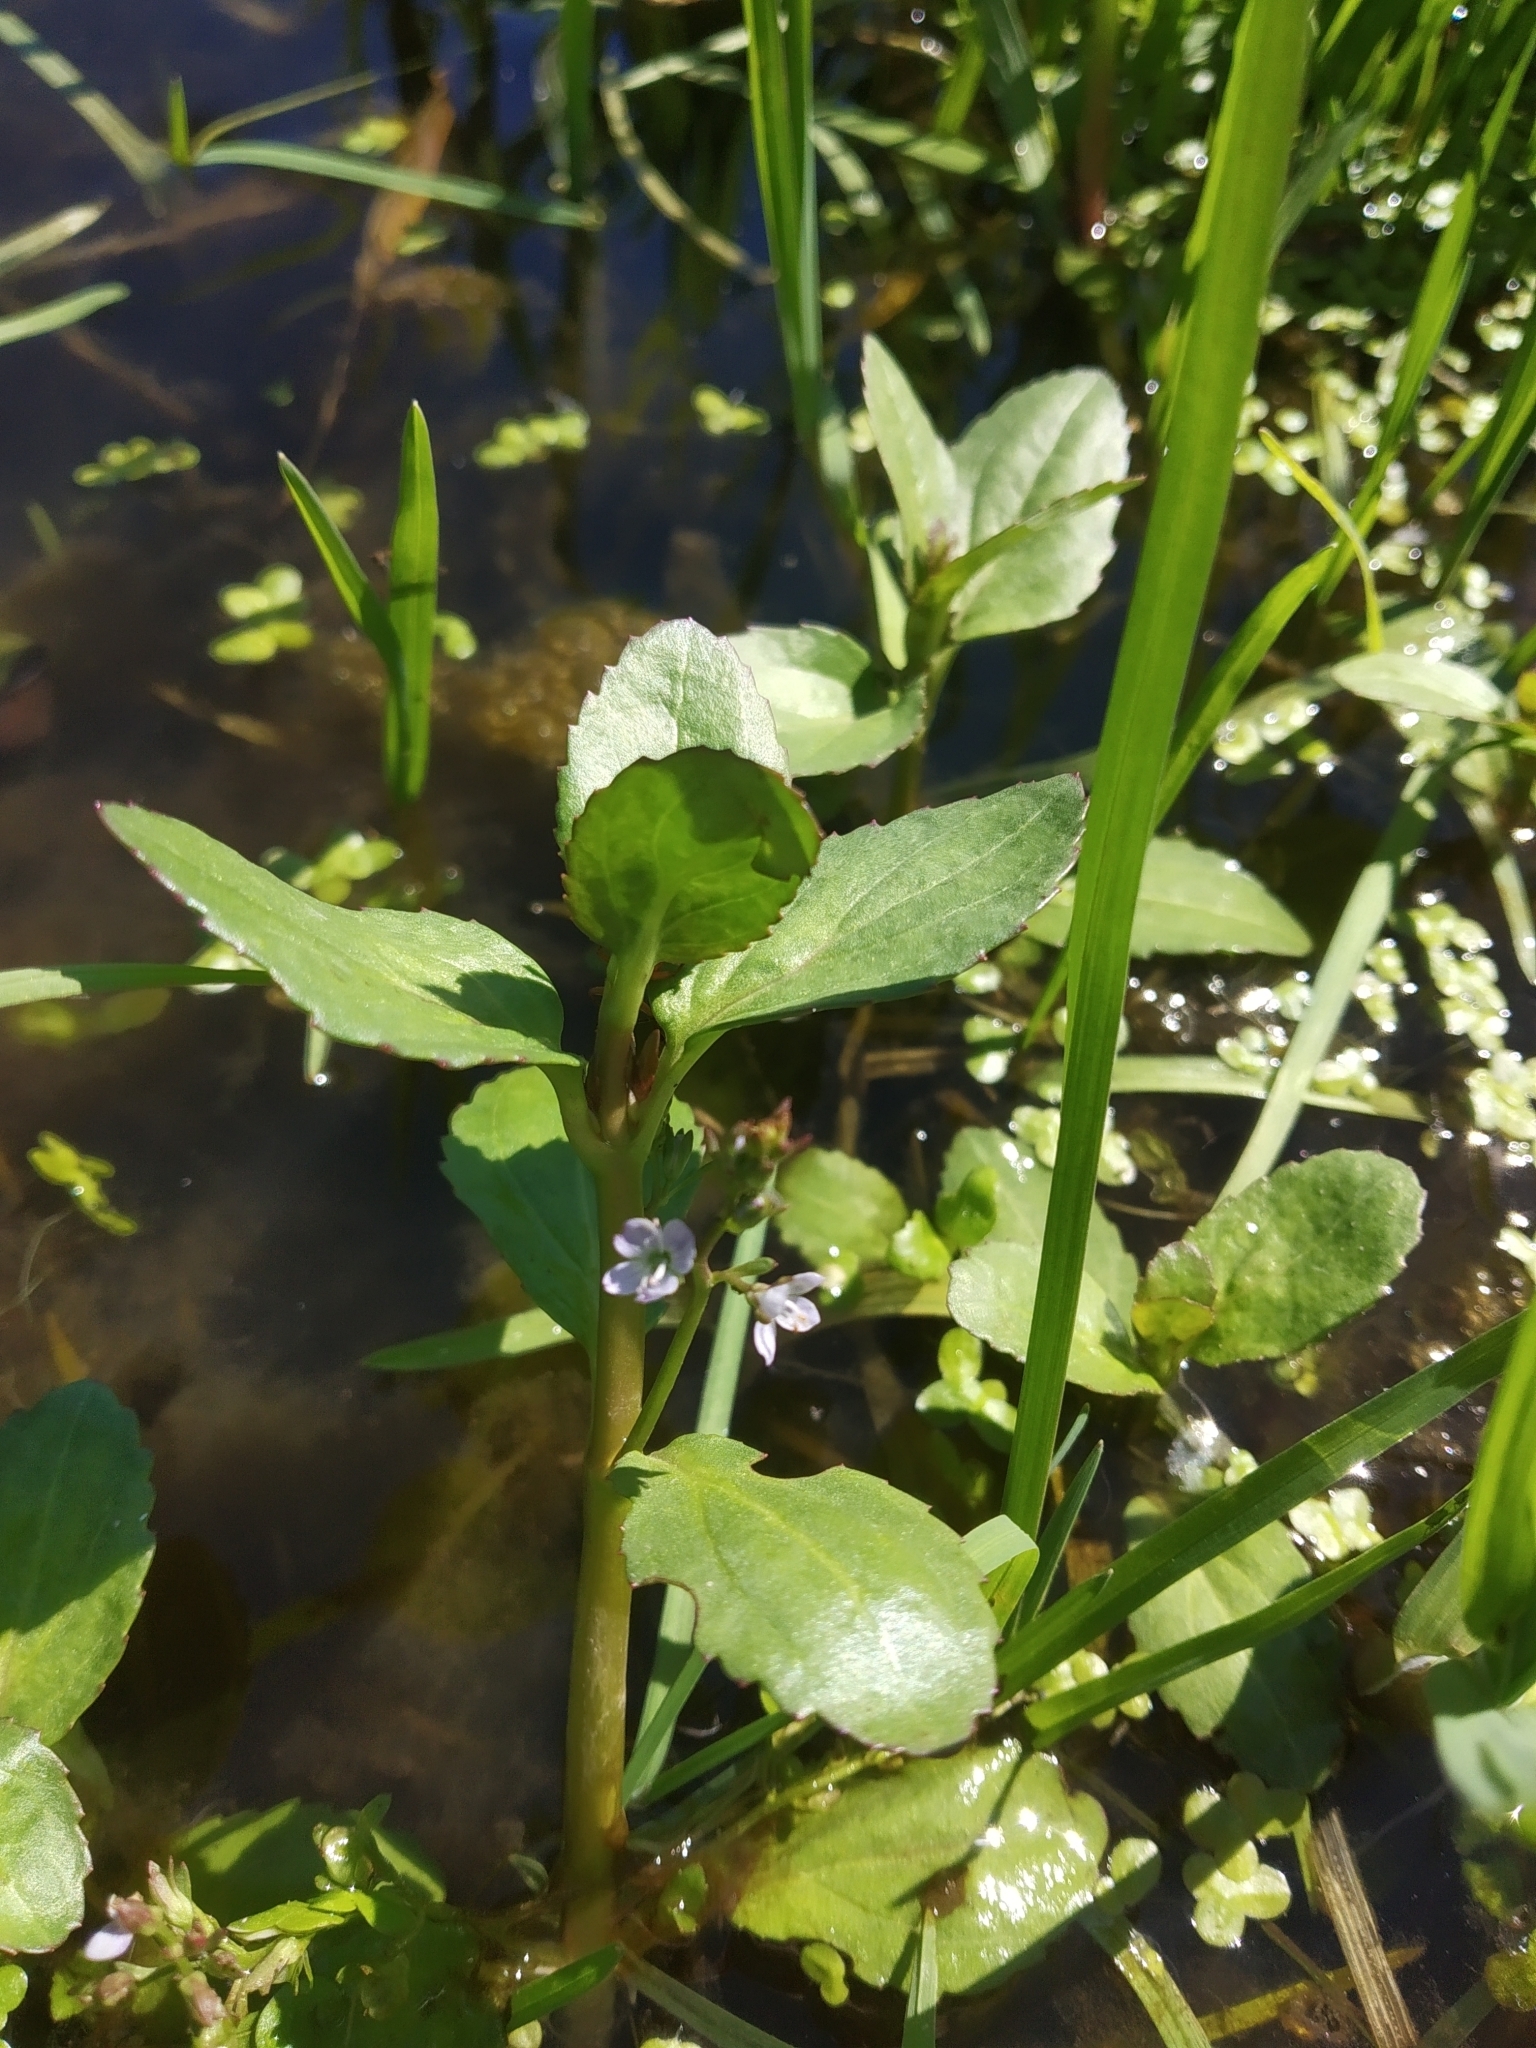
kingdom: Plantae
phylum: Tracheophyta
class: Magnoliopsida
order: Lamiales
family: Plantaginaceae
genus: Veronica
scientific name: Veronica beccabunga
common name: Brooklime
